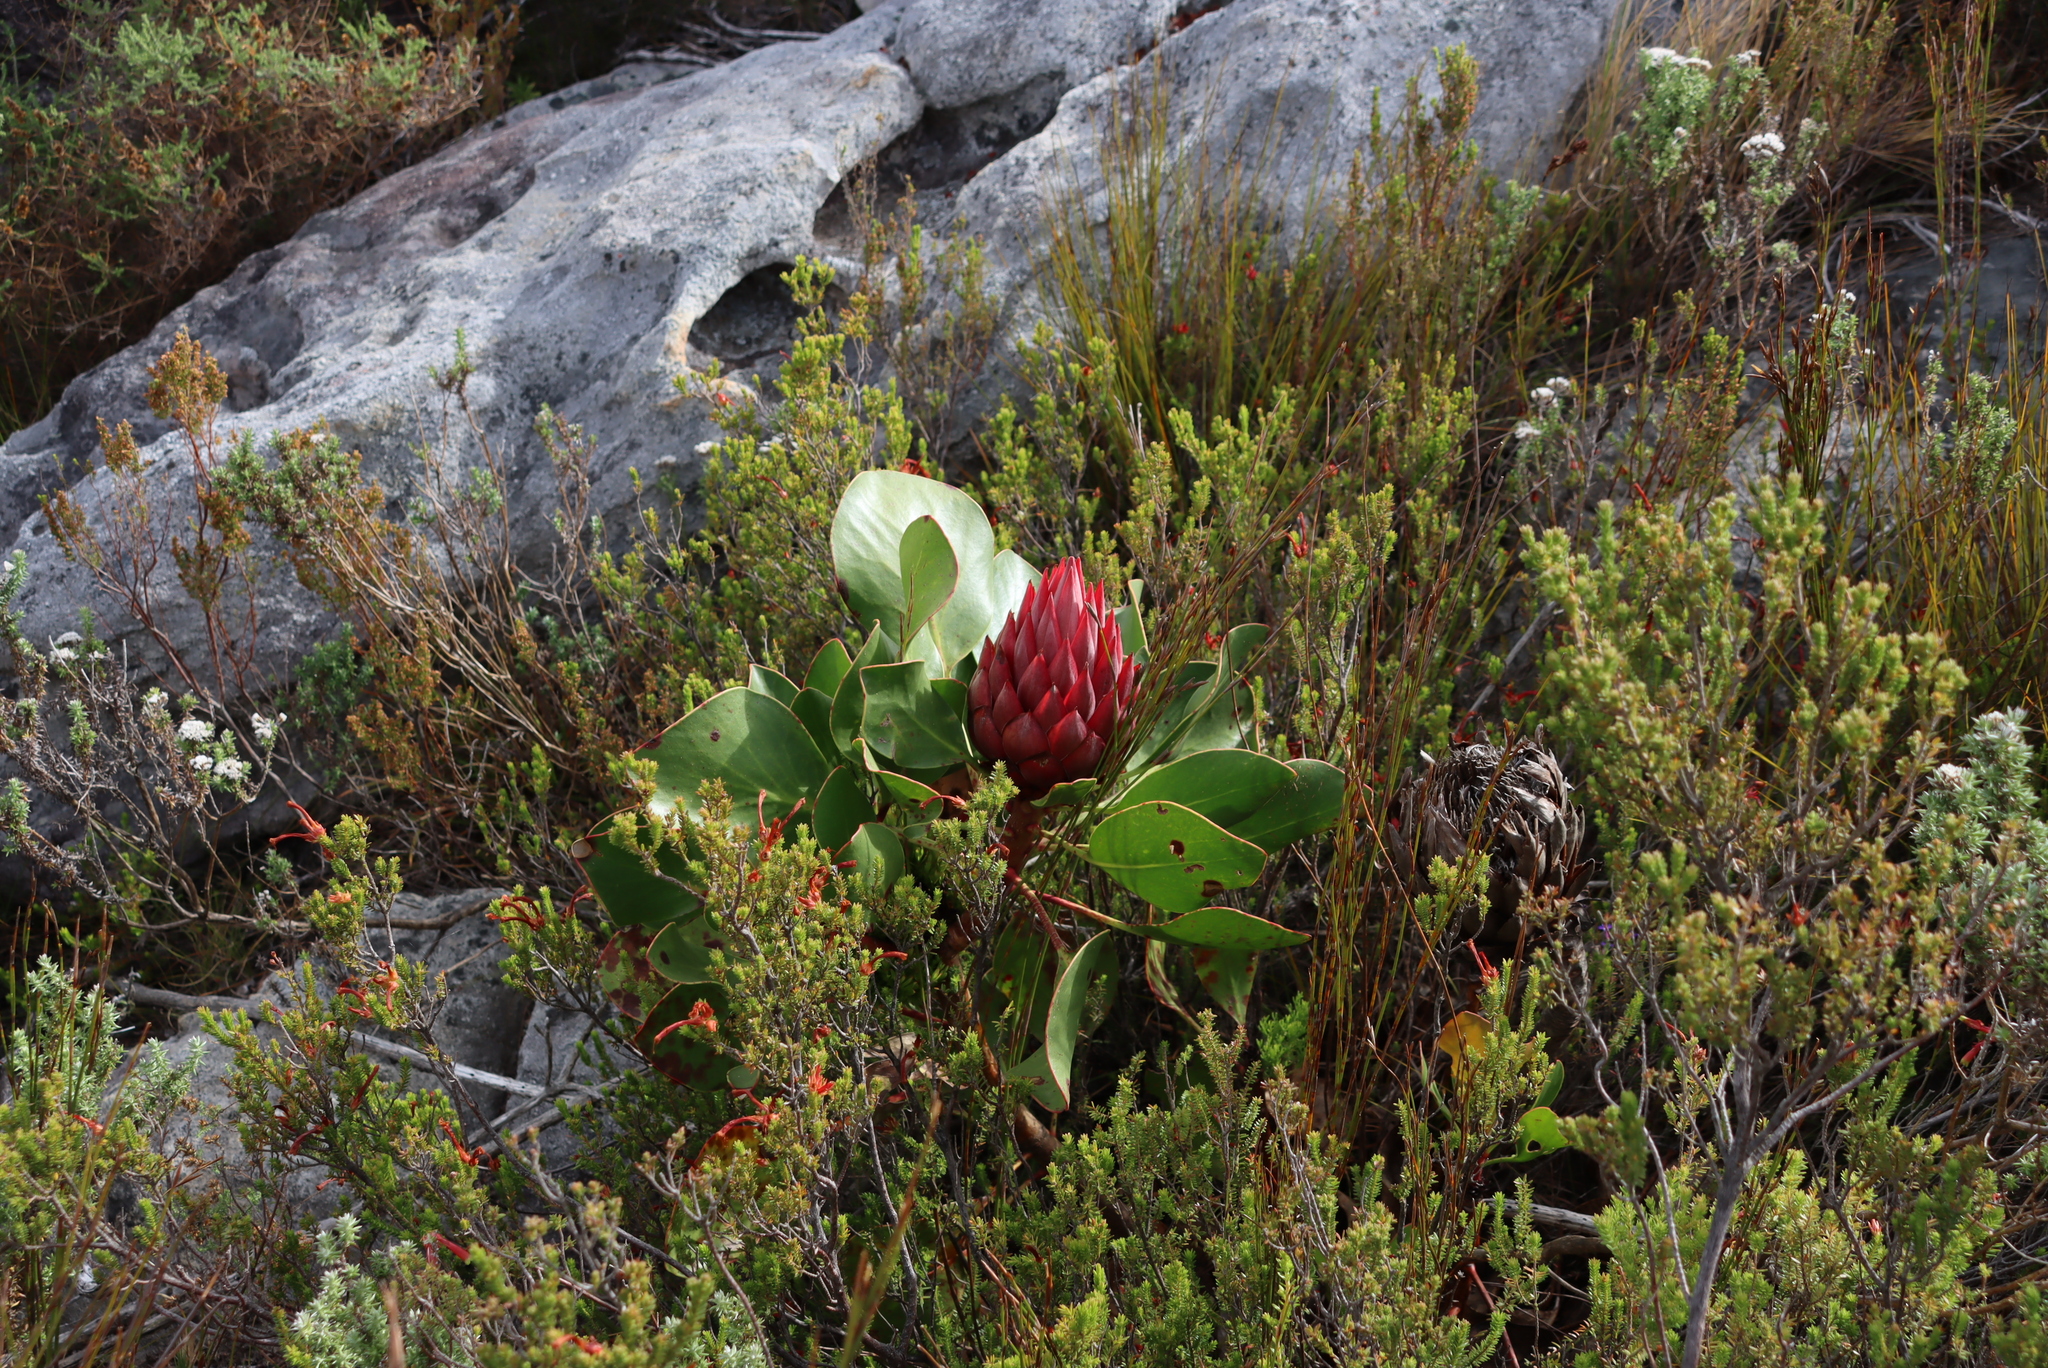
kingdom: Plantae
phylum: Tracheophyta
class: Magnoliopsida
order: Proteales
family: Proteaceae
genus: Protea
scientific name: Protea cynaroides
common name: King protea
